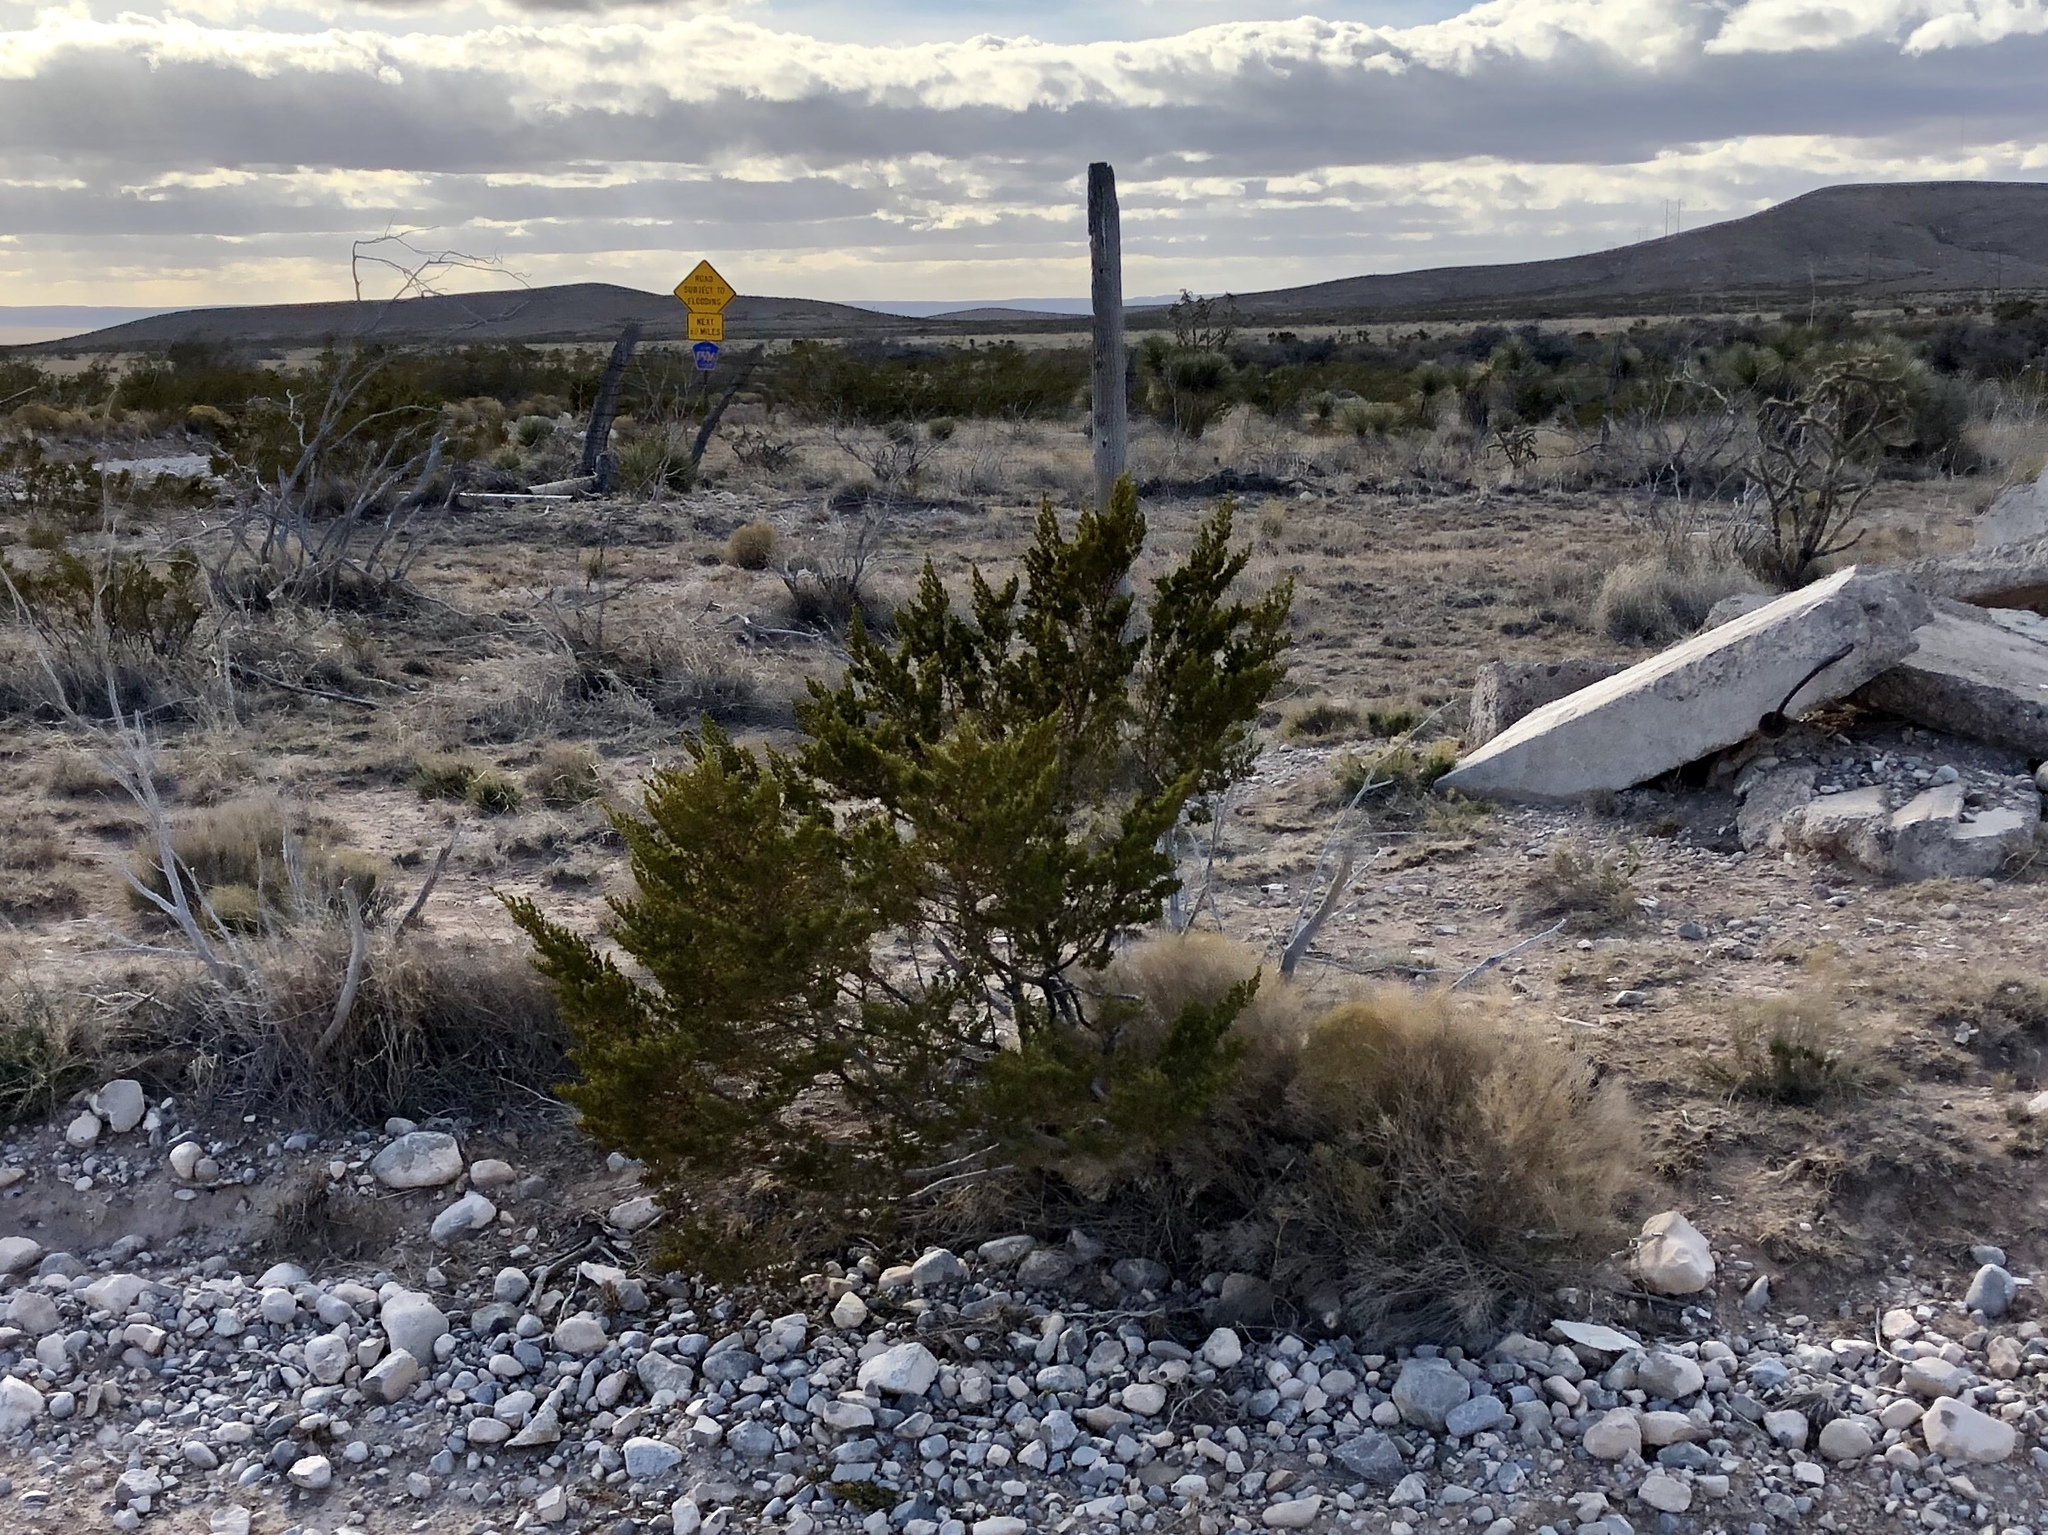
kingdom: Plantae
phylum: Tracheophyta
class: Magnoliopsida
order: Zygophyllales
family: Zygophyllaceae
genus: Larrea
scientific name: Larrea tridentata
